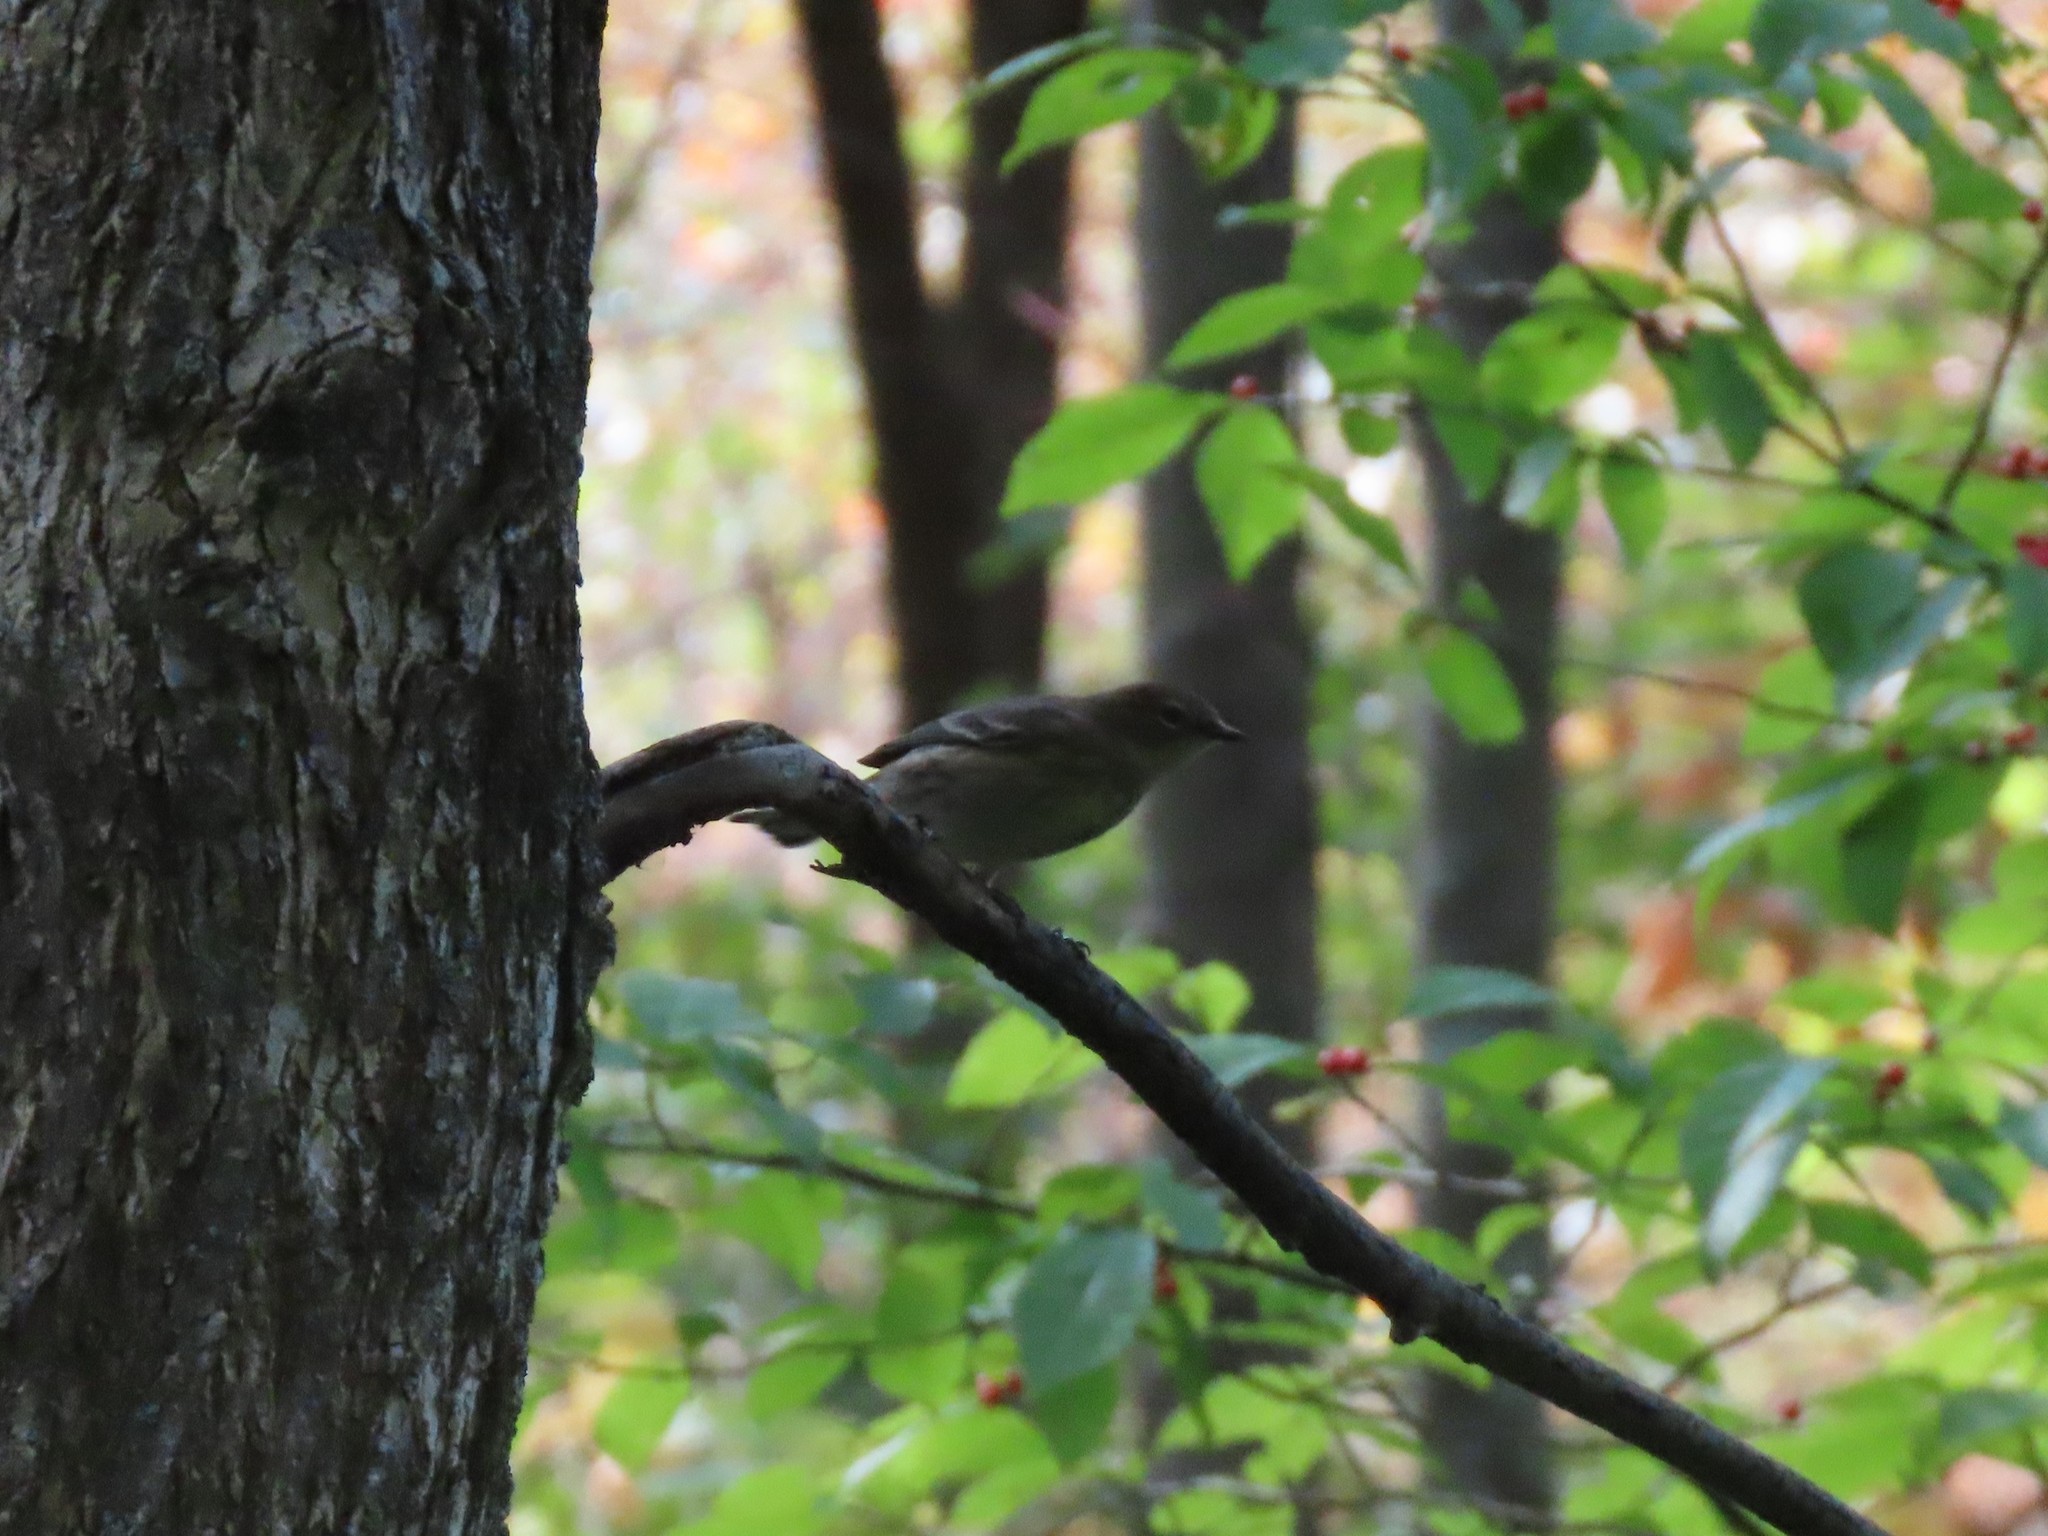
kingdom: Animalia
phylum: Chordata
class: Aves
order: Passeriformes
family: Parulidae
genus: Setophaga
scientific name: Setophaga coronata
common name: Myrtle warbler
